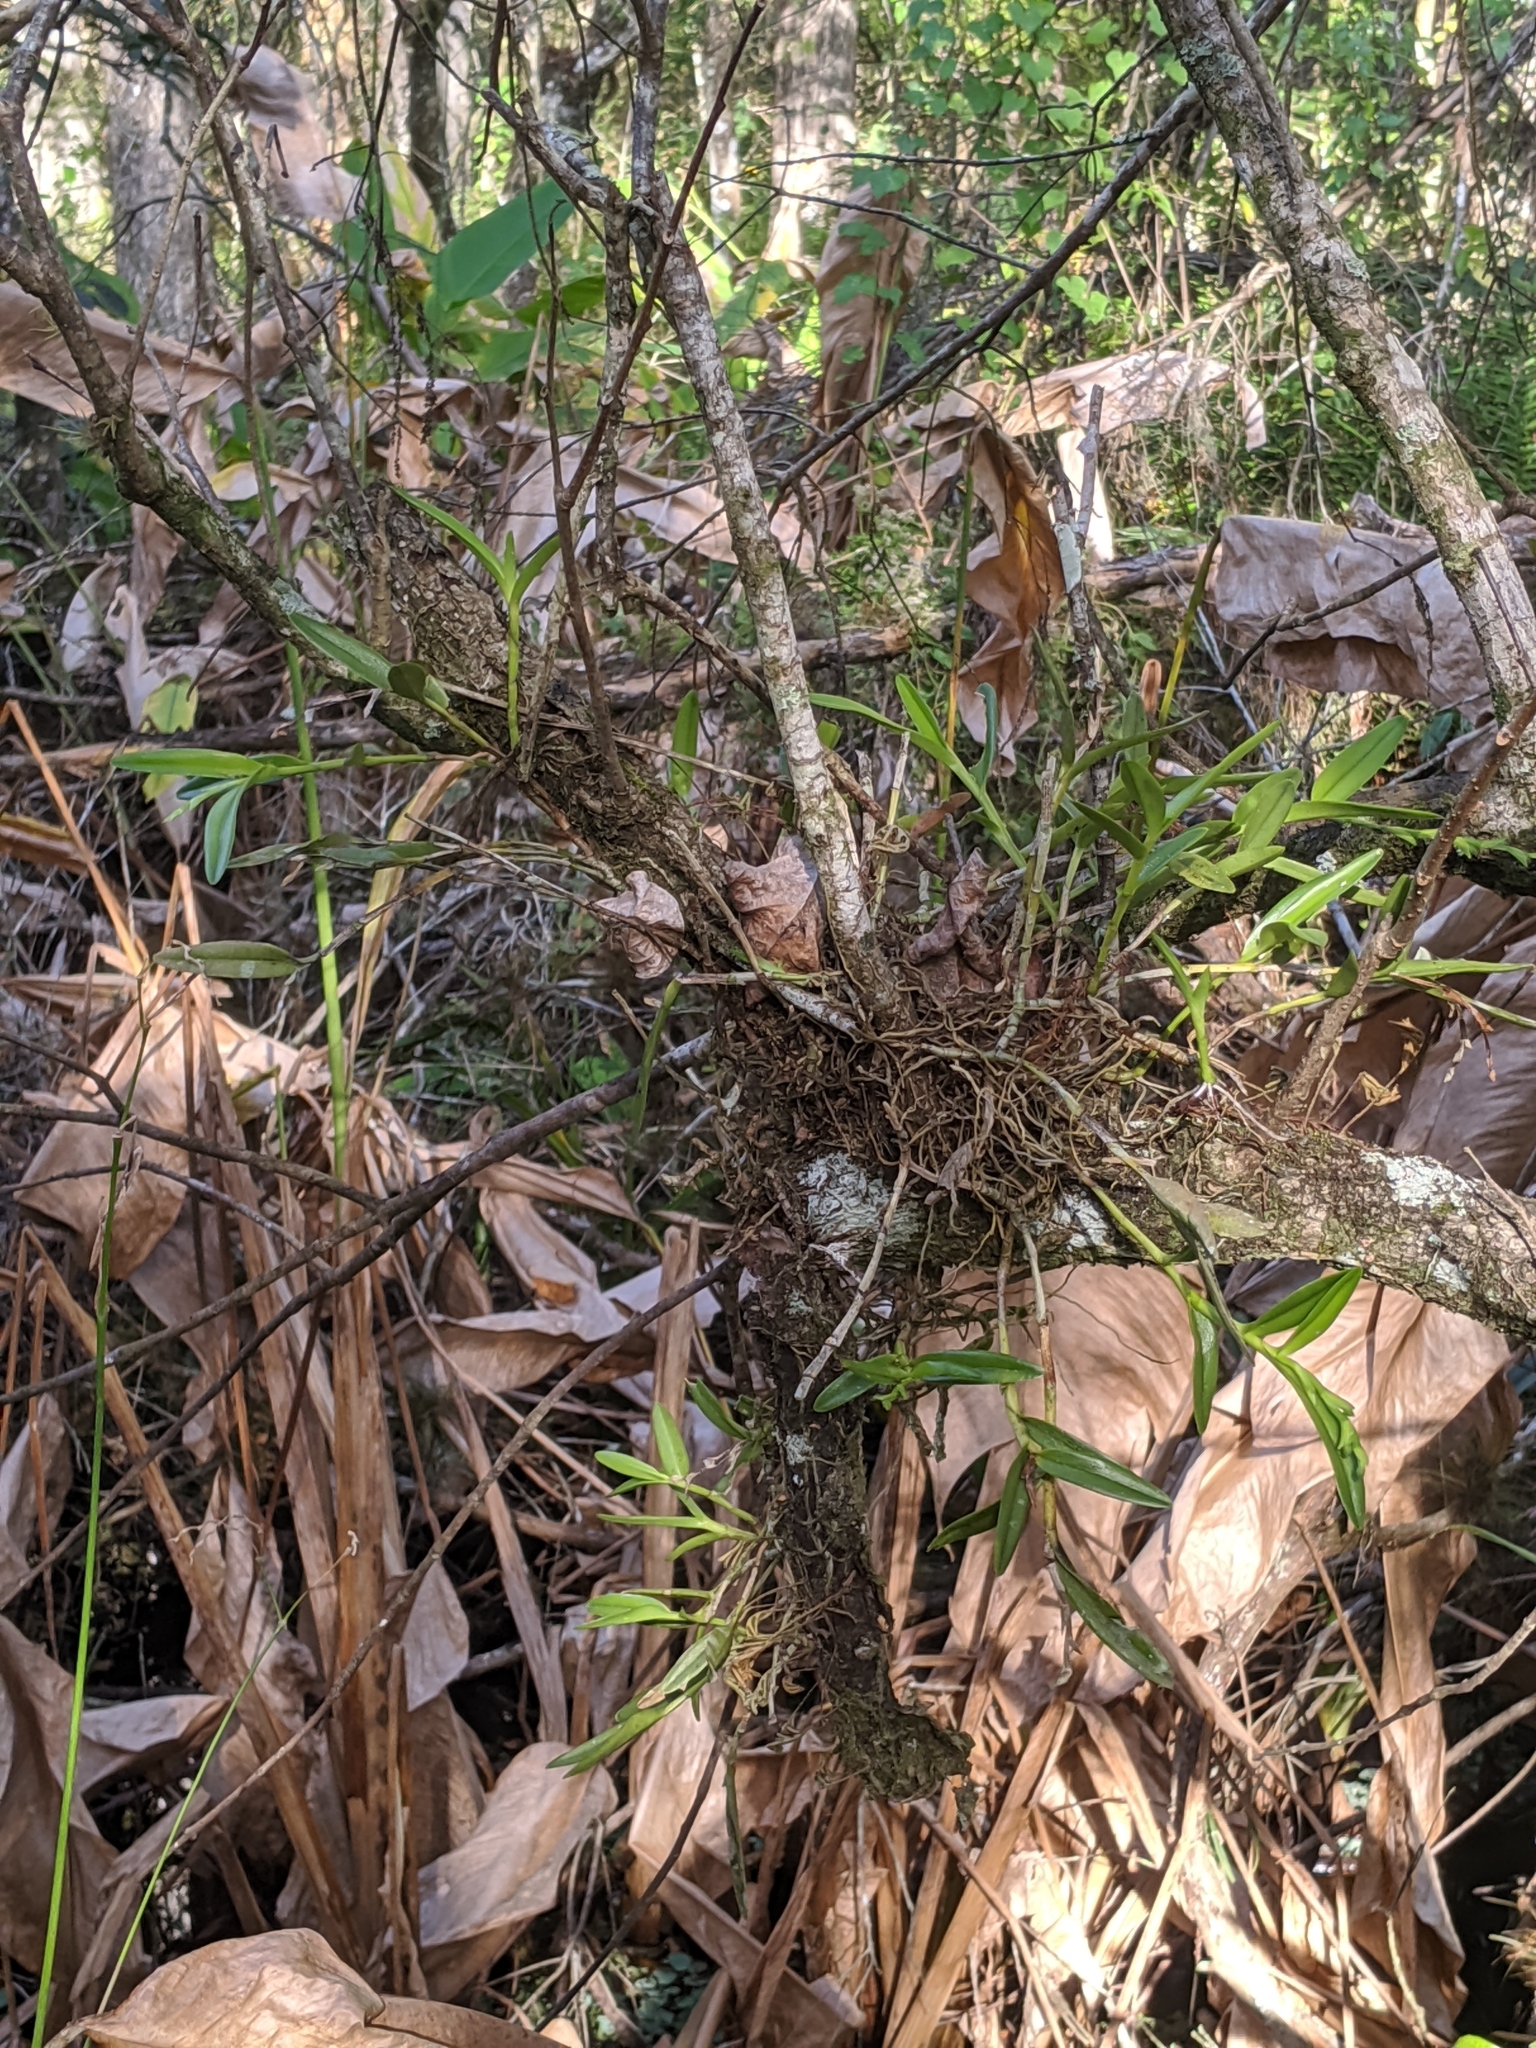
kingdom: Plantae
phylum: Tracheophyta
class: Liliopsida
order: Asparagales
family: Orchidaceae
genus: Epidendrum
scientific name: Epidendrum rigidum
